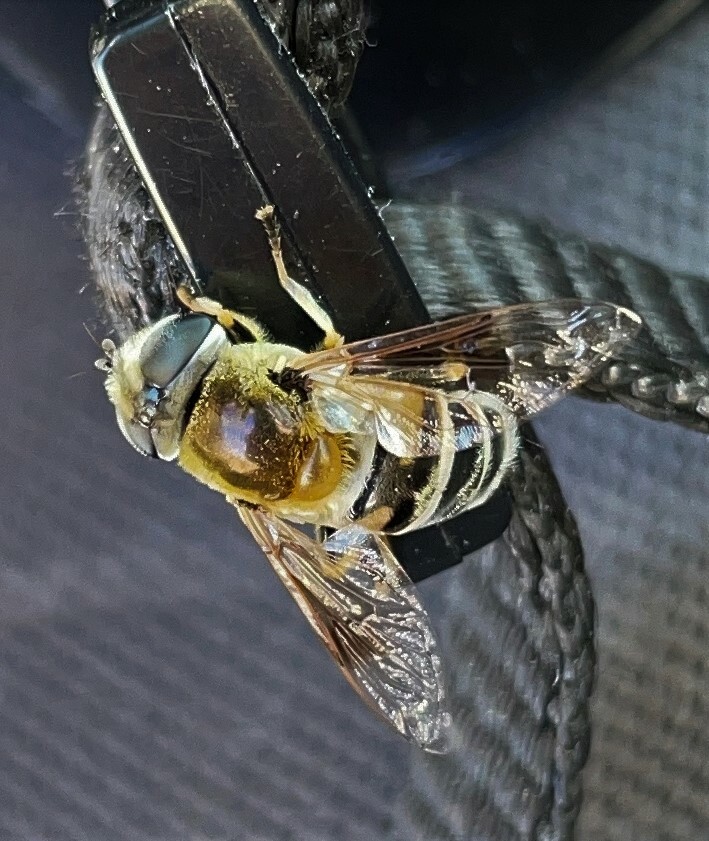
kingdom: Animalia
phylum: Arthropoda
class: Insecta
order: Diptera
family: Syrphidae
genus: Eristalis
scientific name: Eristalis stipator
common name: Yellow-shouldered drone fly
